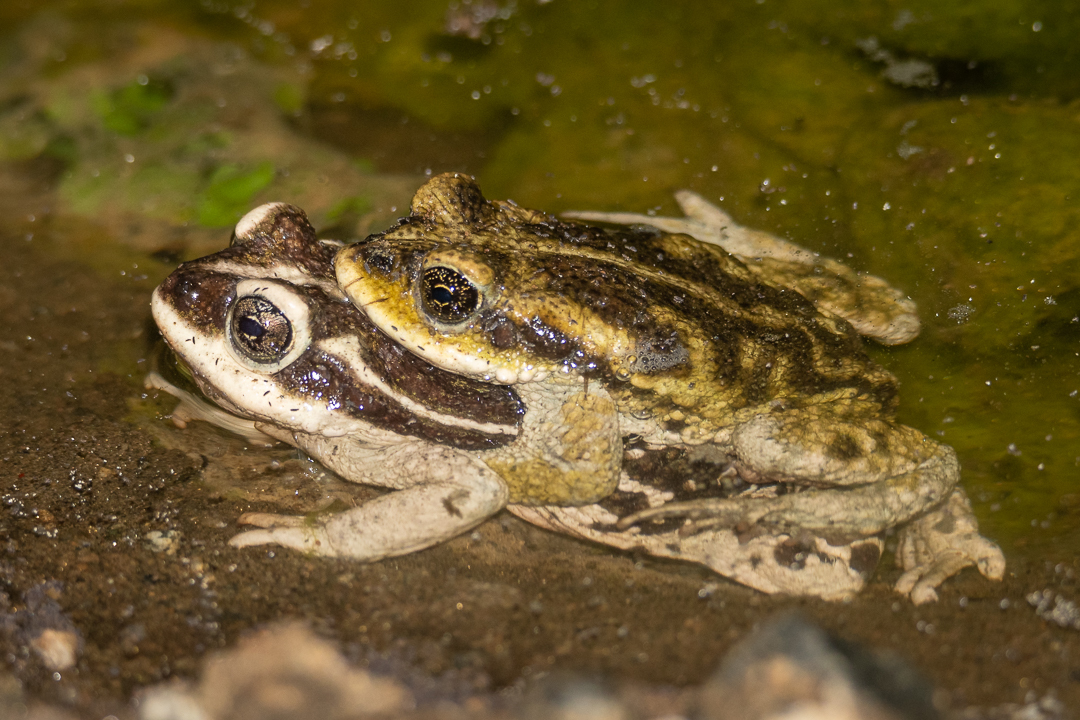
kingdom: Animalia
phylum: Chordata
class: Amphibia
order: Anura
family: Bufonidae
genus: Rhinella
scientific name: Rhinella atacamensis
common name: Atacama toad
